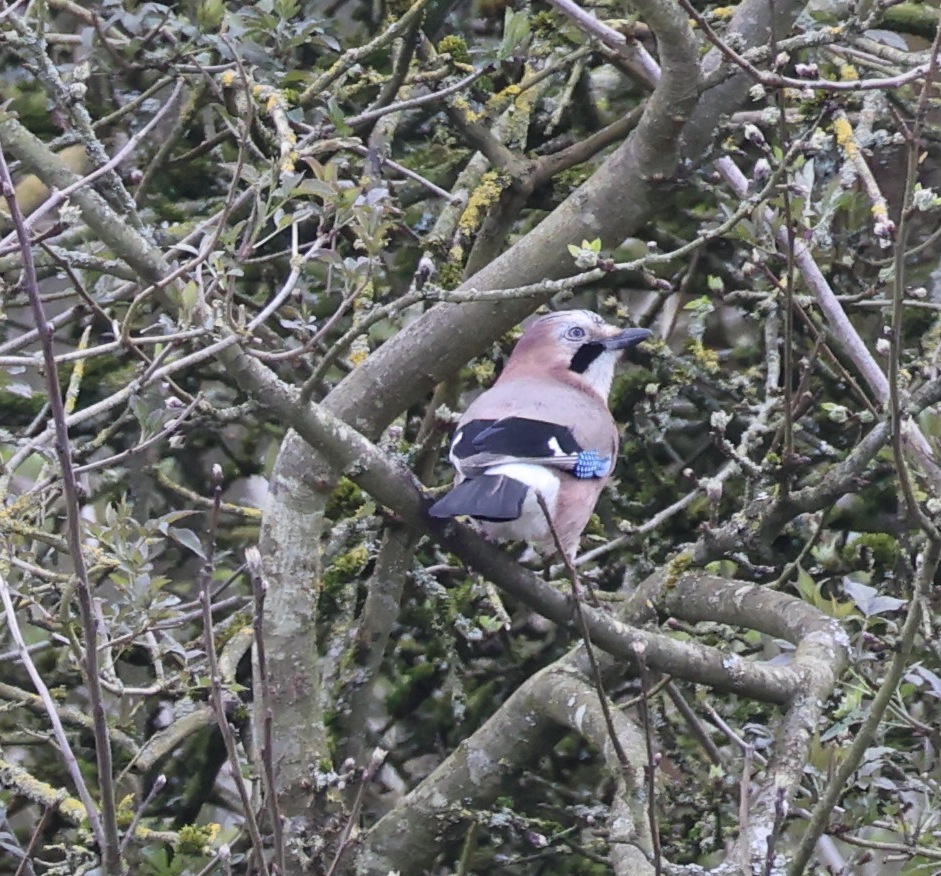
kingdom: Animalia
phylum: Chordata
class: Aves
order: Passeriformes
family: Corvidae
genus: Garrulus
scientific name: Garrulus glandarius
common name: Eurasian jay
